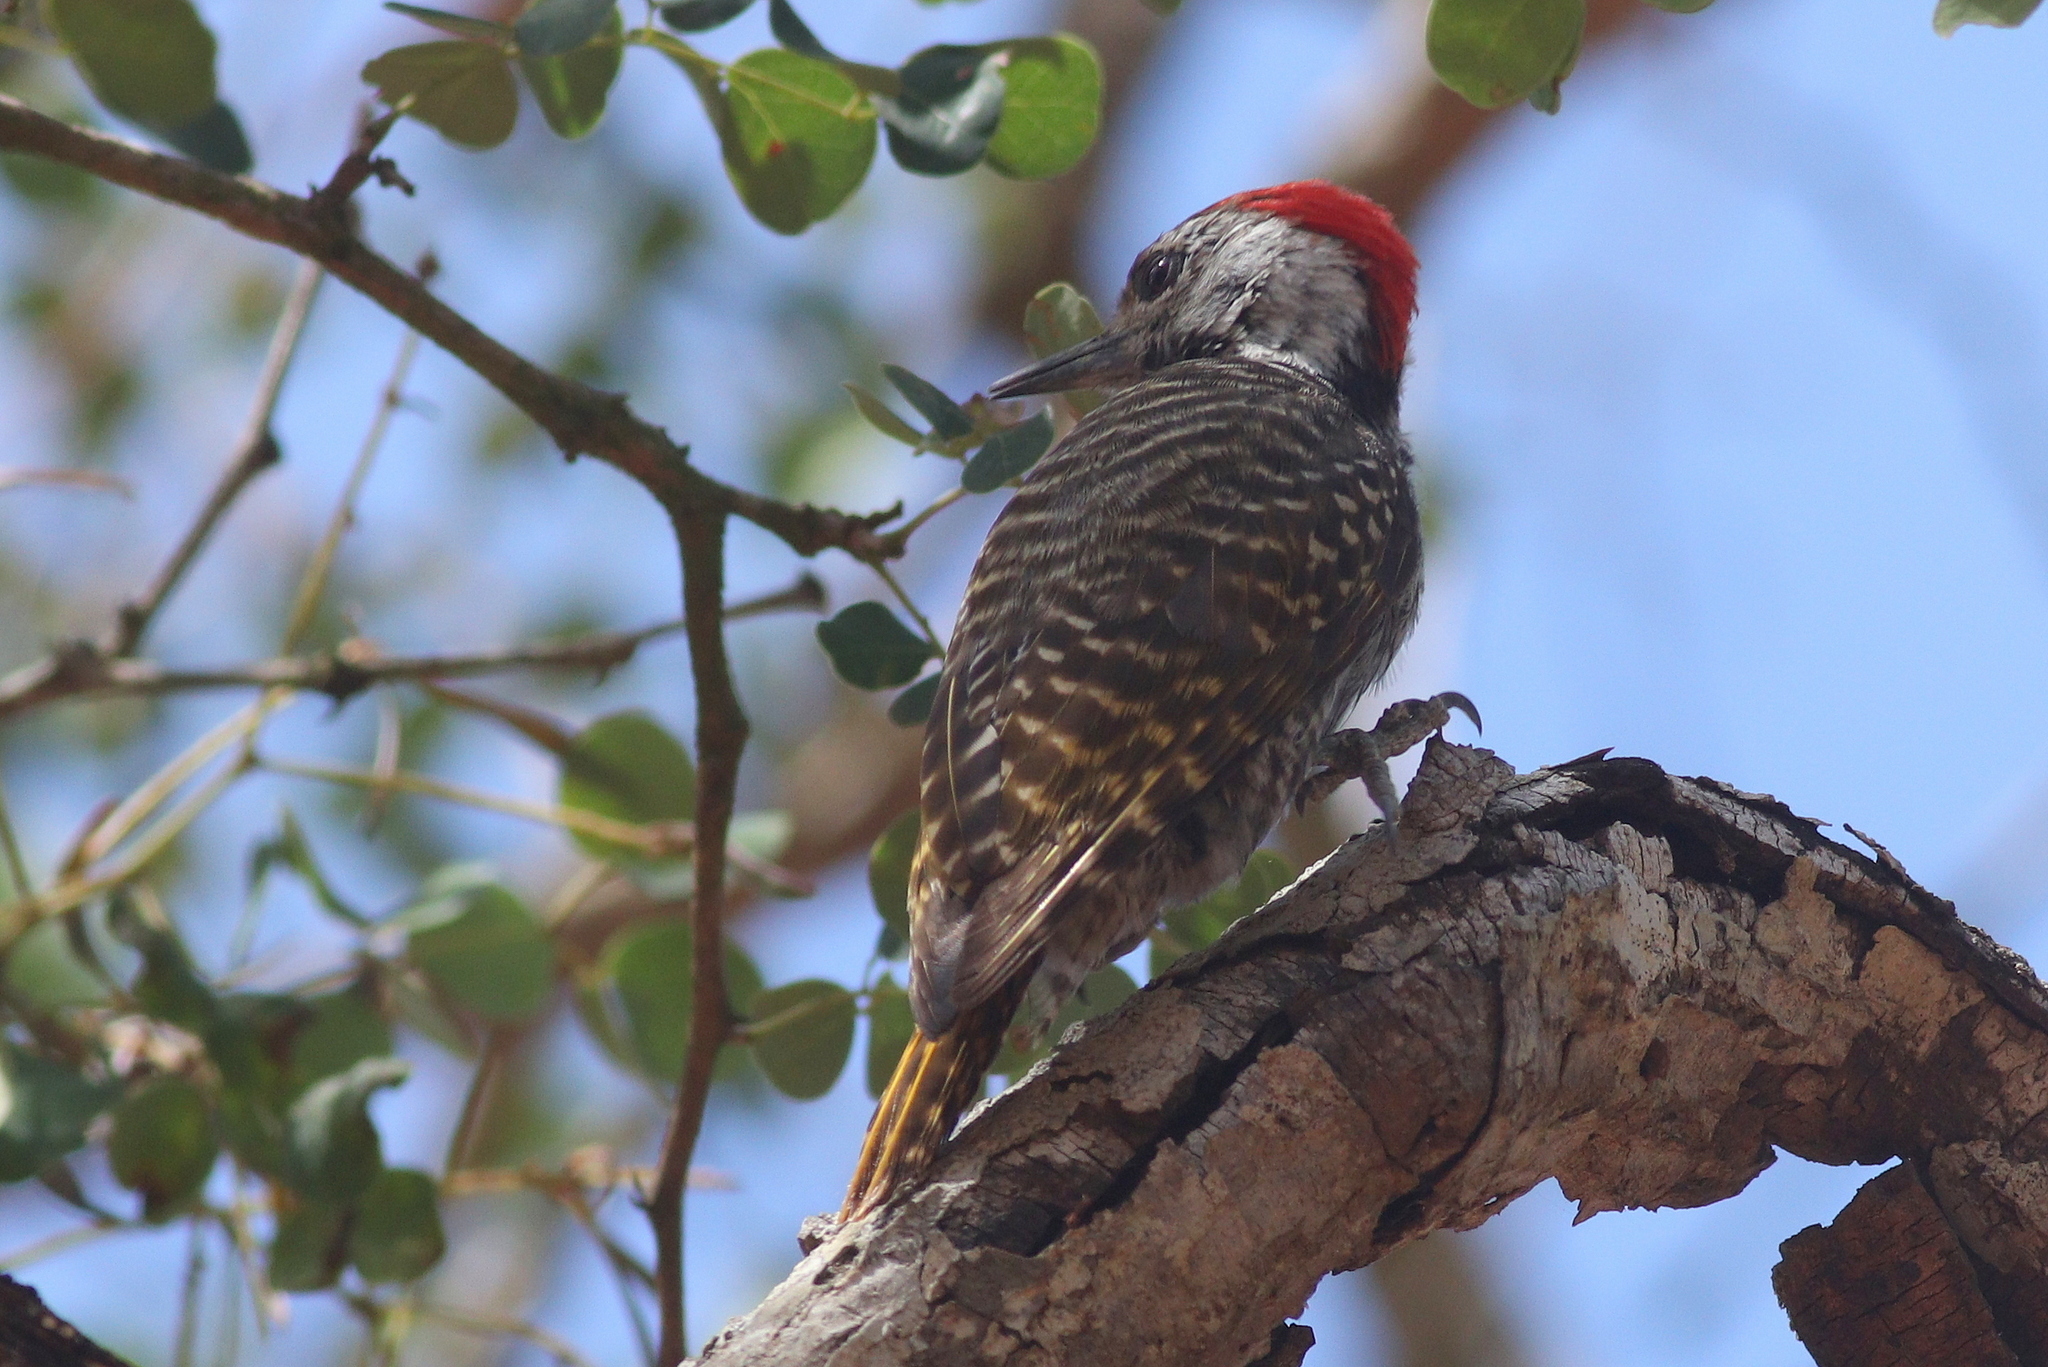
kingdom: Animalia
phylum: Chordata
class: Aves
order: Piciformes
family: Picidae
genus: Dendropicos
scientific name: Dendropicos fuscescens
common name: Cardinal woodpecker
